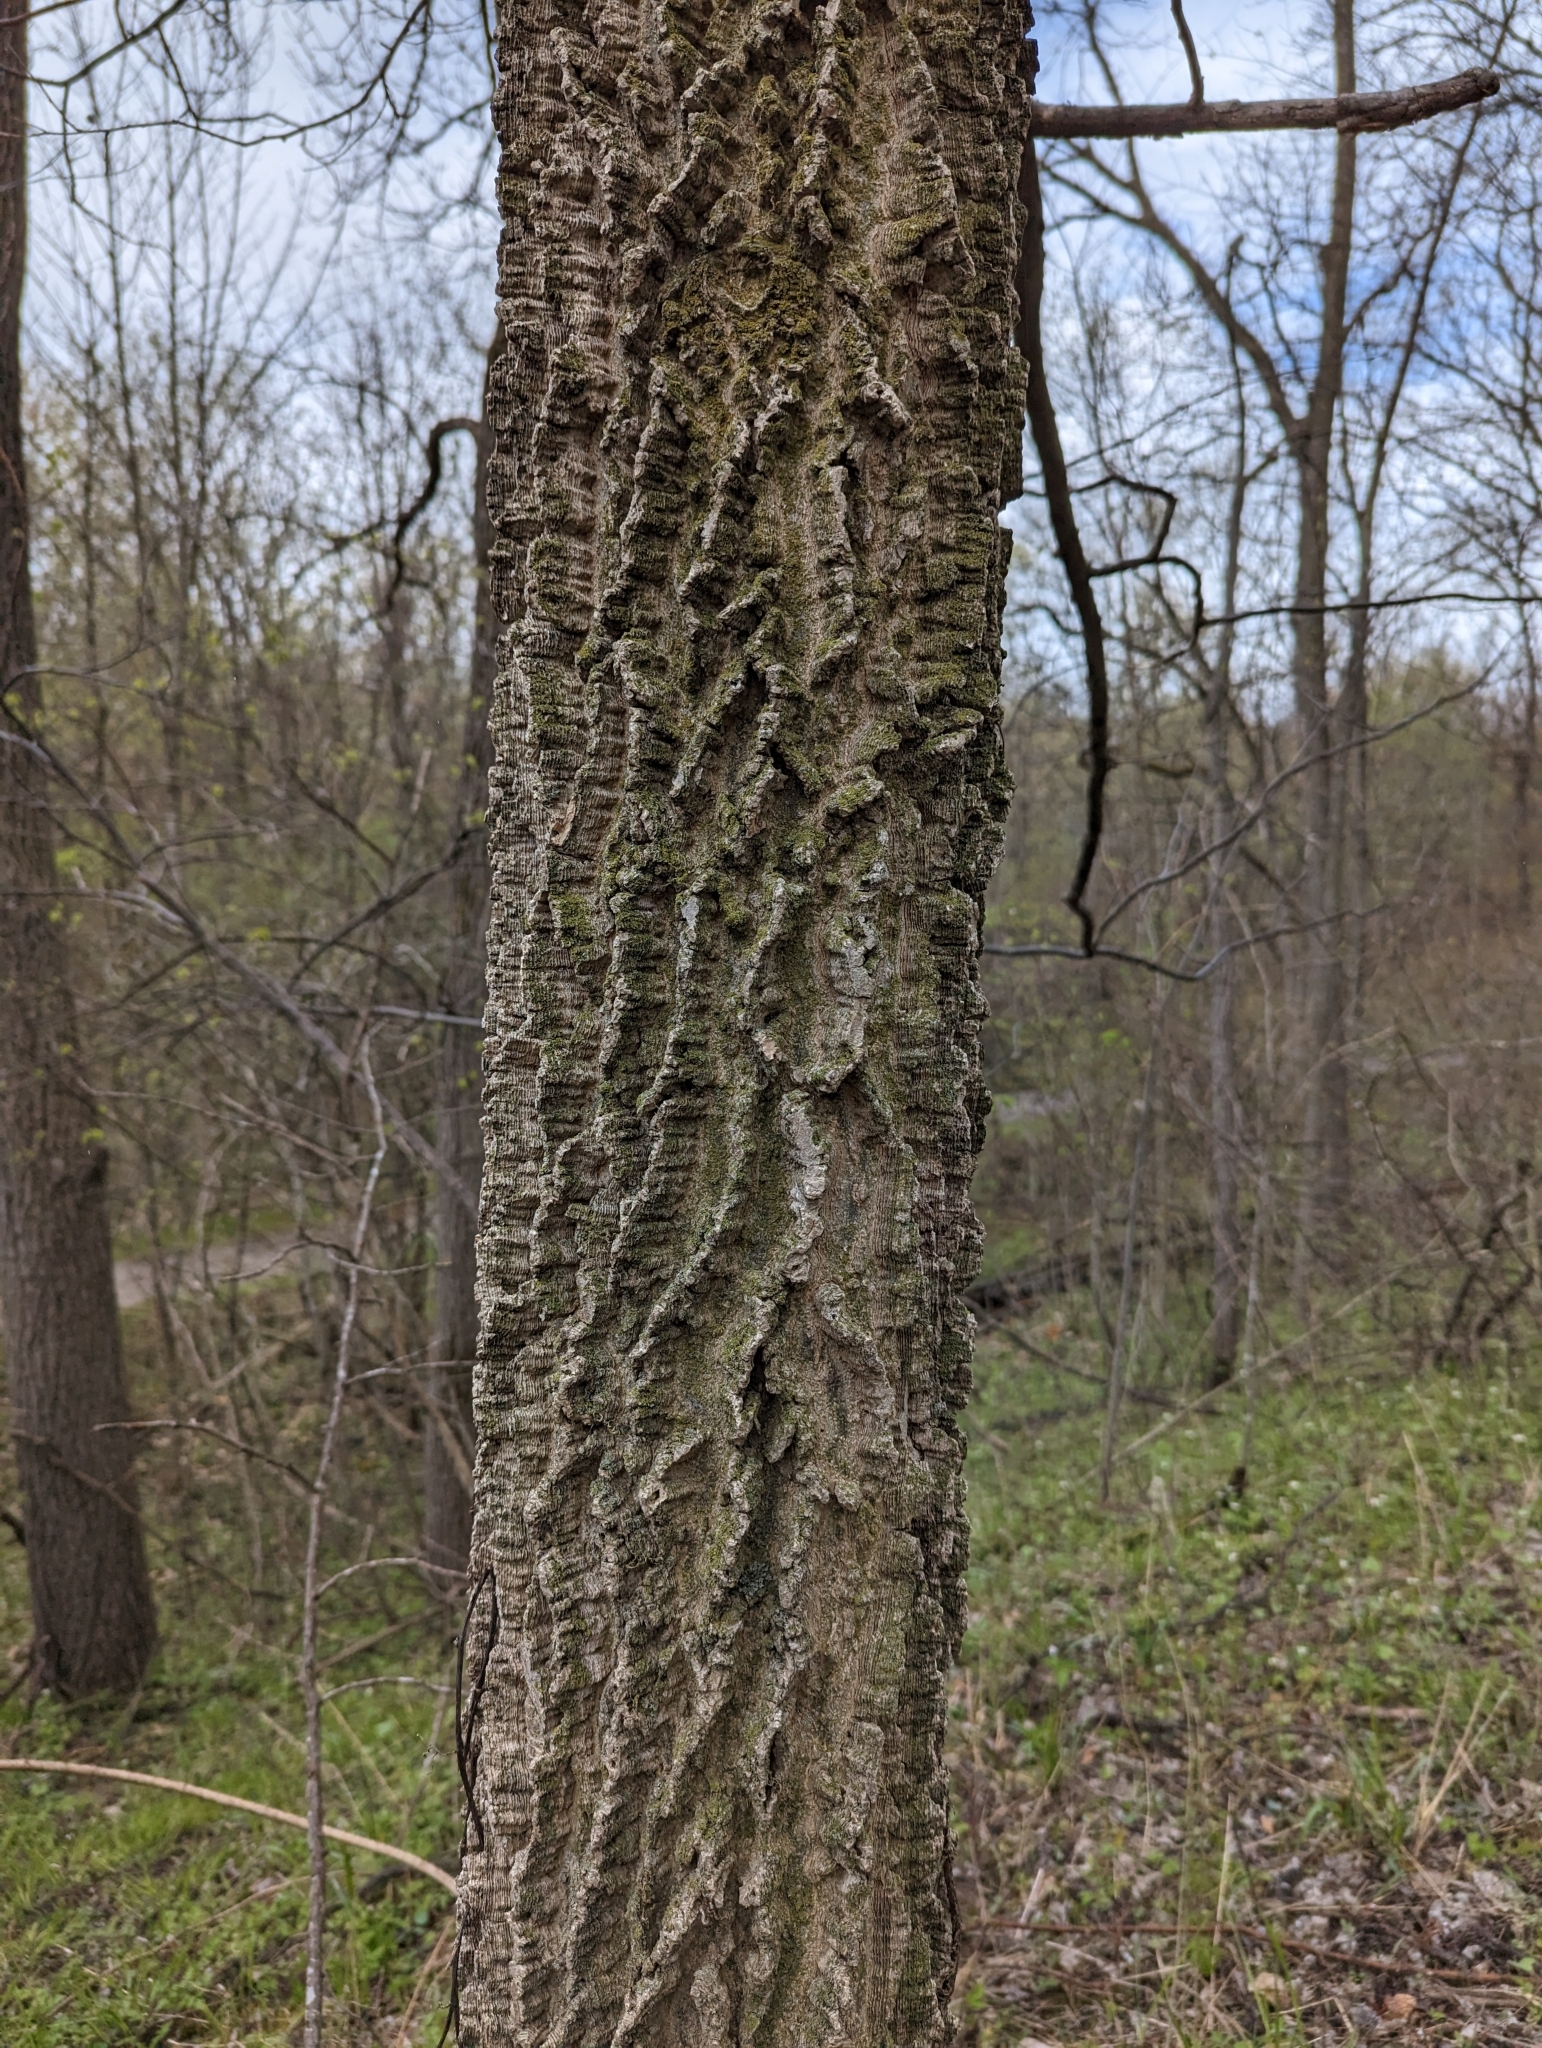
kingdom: Plantae
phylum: Tracheophyta
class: Magnoliopsida
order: Rosales
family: Cannabaceae
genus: Celtis
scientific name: Celtis occidentalis
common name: Common hackberry
